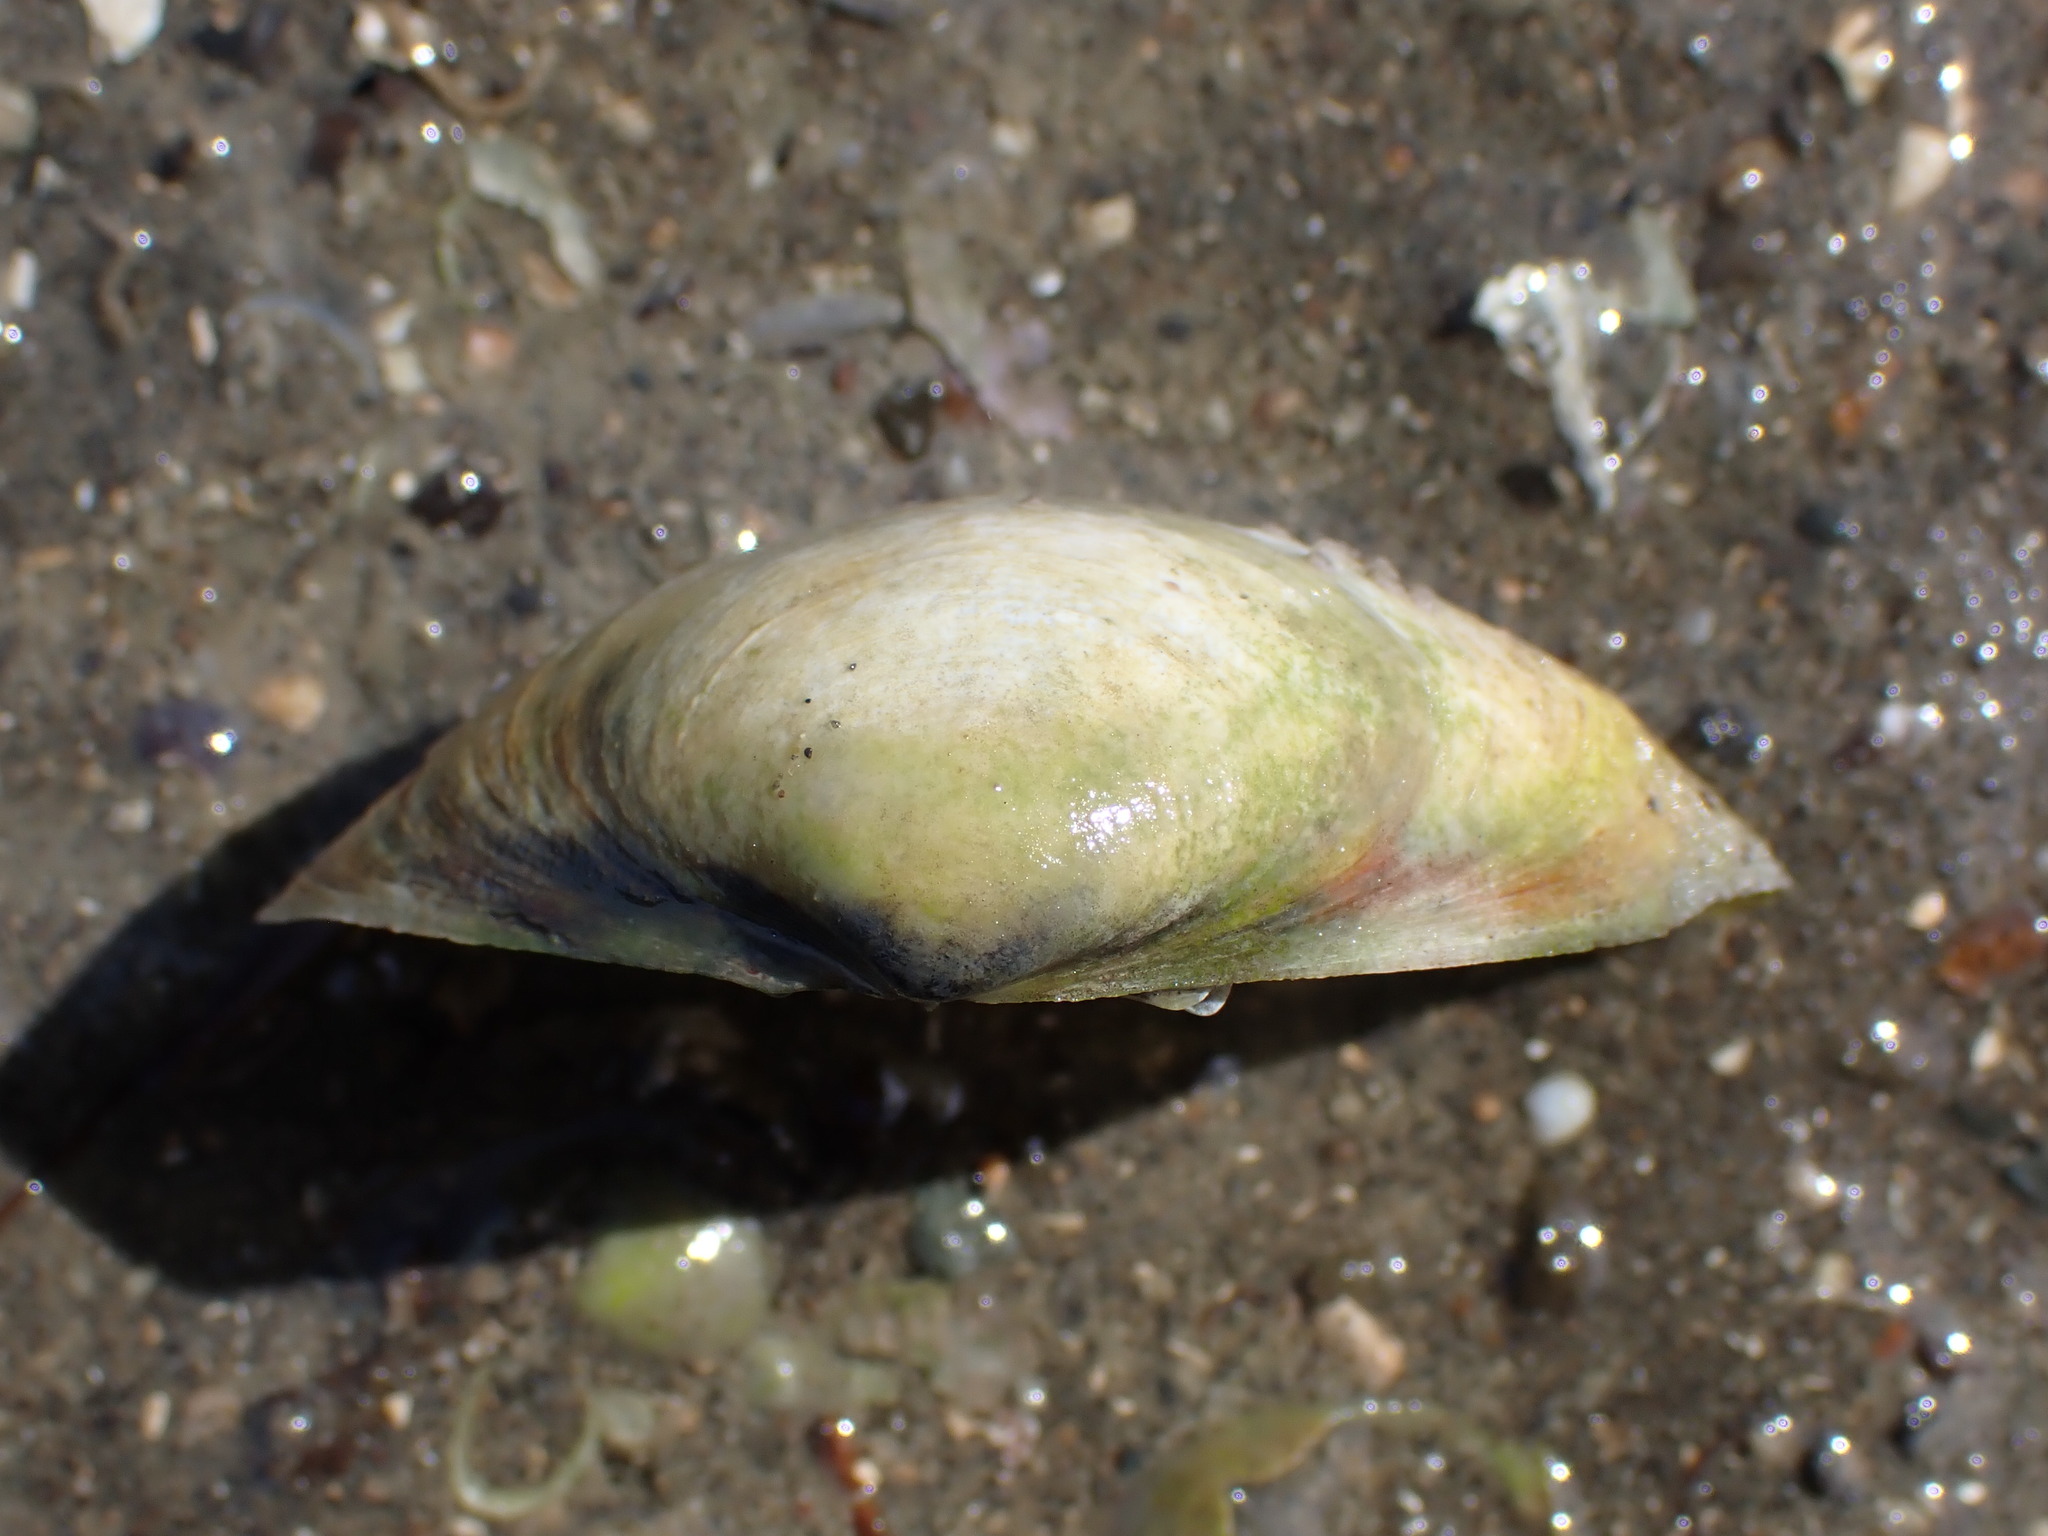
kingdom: Animalia
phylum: Mollusca
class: Bivalvia
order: Venerida
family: Mactridae
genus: Cyclomactra
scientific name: Cyclomactra ovata
